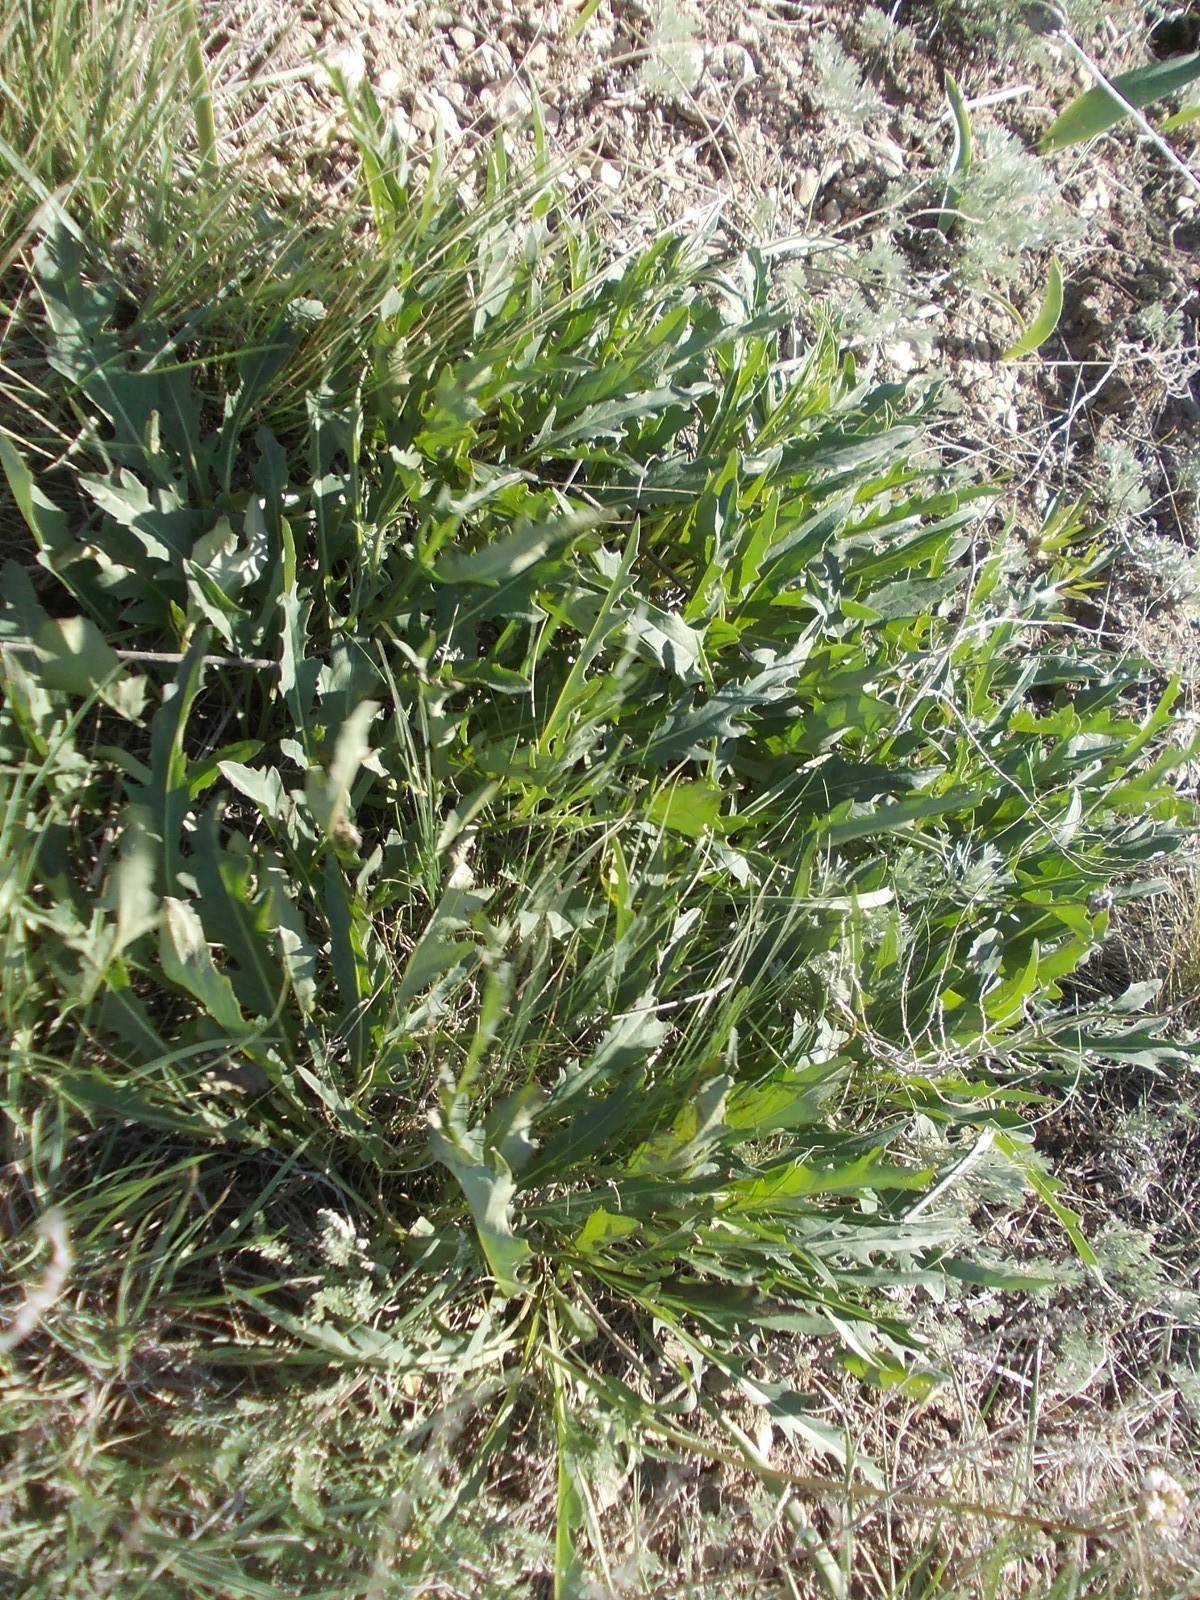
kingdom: Plantae
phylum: Tracheophyta
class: Magnoliopsida
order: Asterales
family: Asteraceae
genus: Klasea
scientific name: Klasea cardunculus
